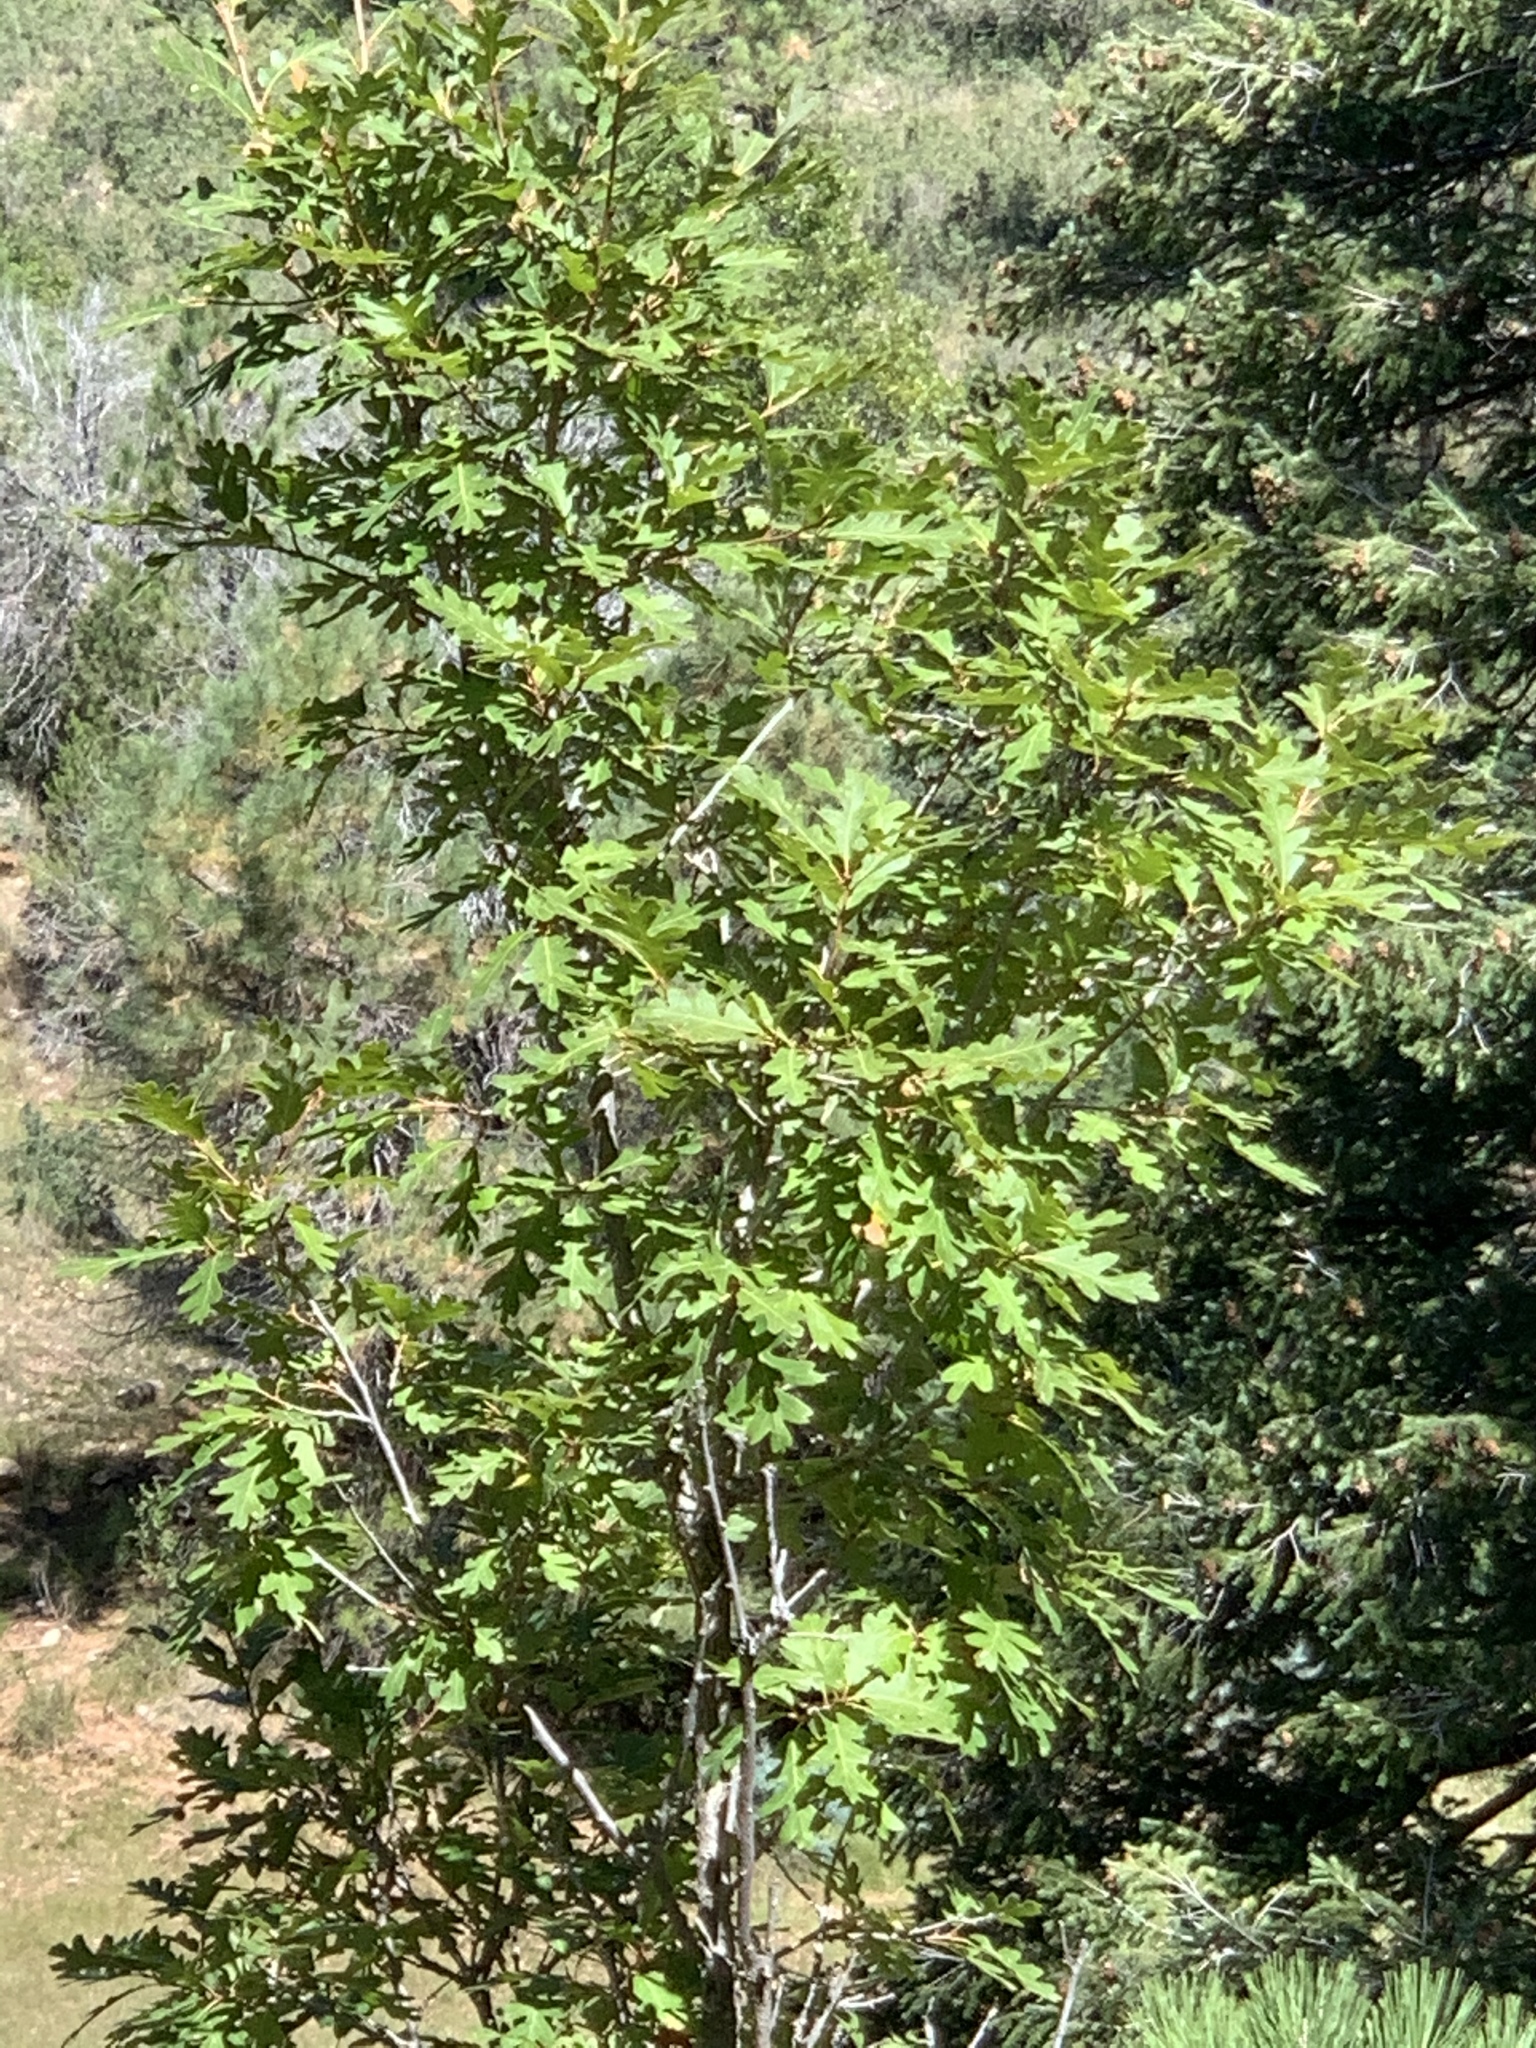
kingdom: Plantae
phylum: Tracheophyta
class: Magnoliopsida
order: Fagales
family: Fagaceae
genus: Quercus
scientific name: Quercus gambelii
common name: Gambel oak
